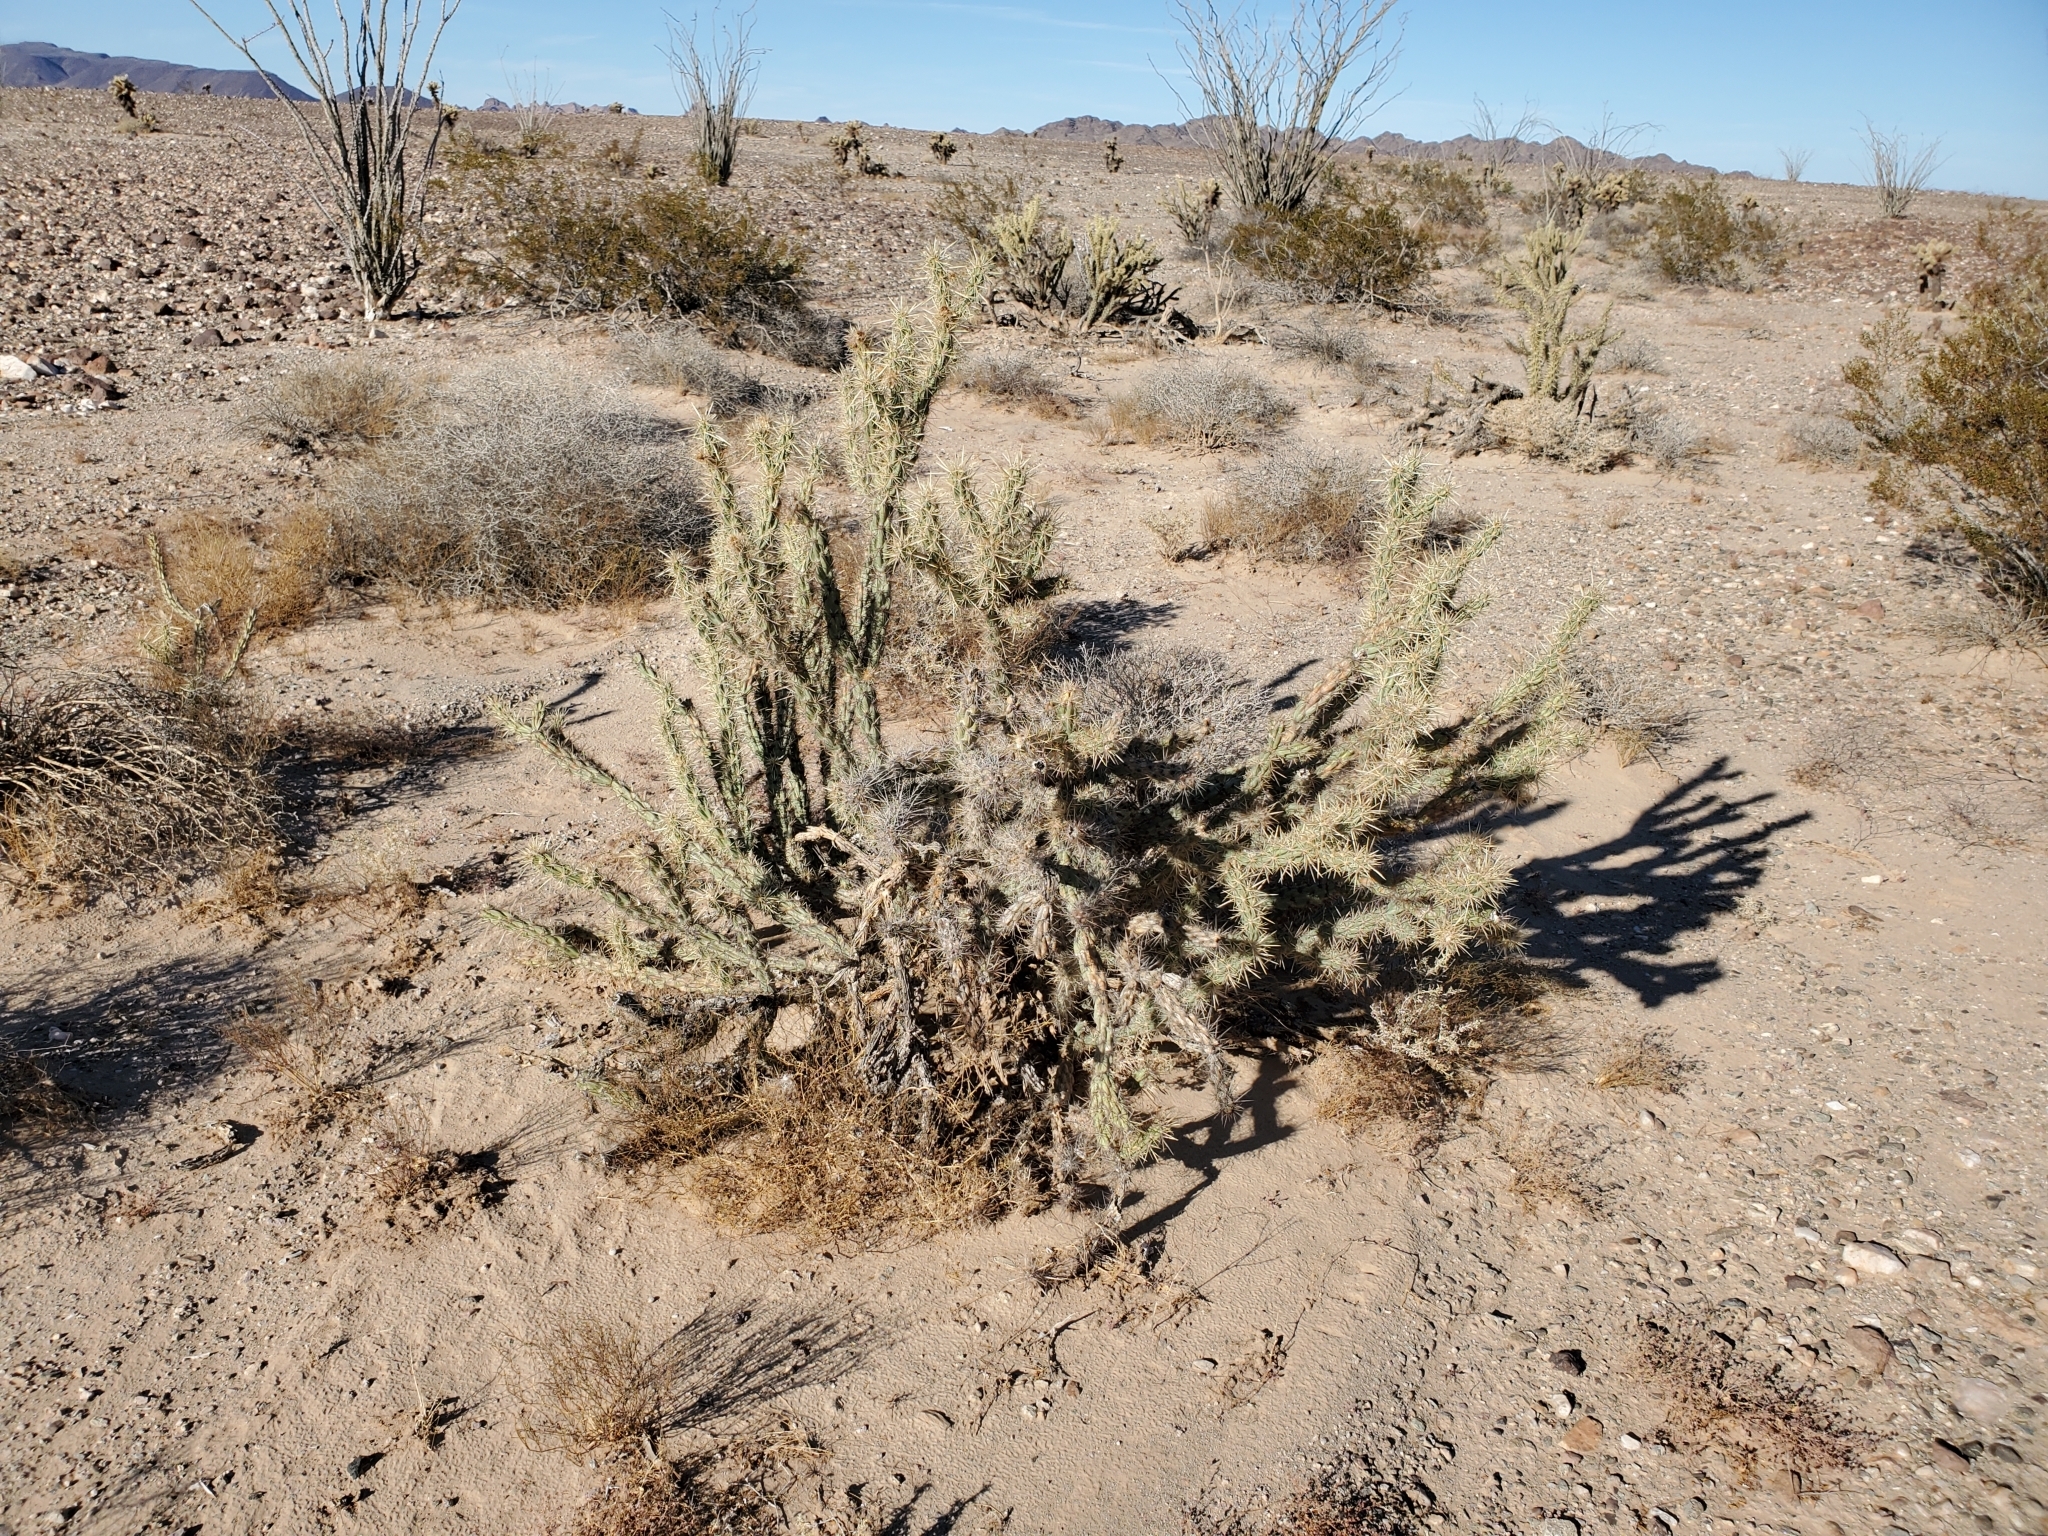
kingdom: Plantae
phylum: Tracheophyta
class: Magnoliopsida
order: Caryophyllales
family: Cactaceae
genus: Cylindropuntia
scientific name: Cylindropuntia acanthocarpa
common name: Buckhorn cholla
